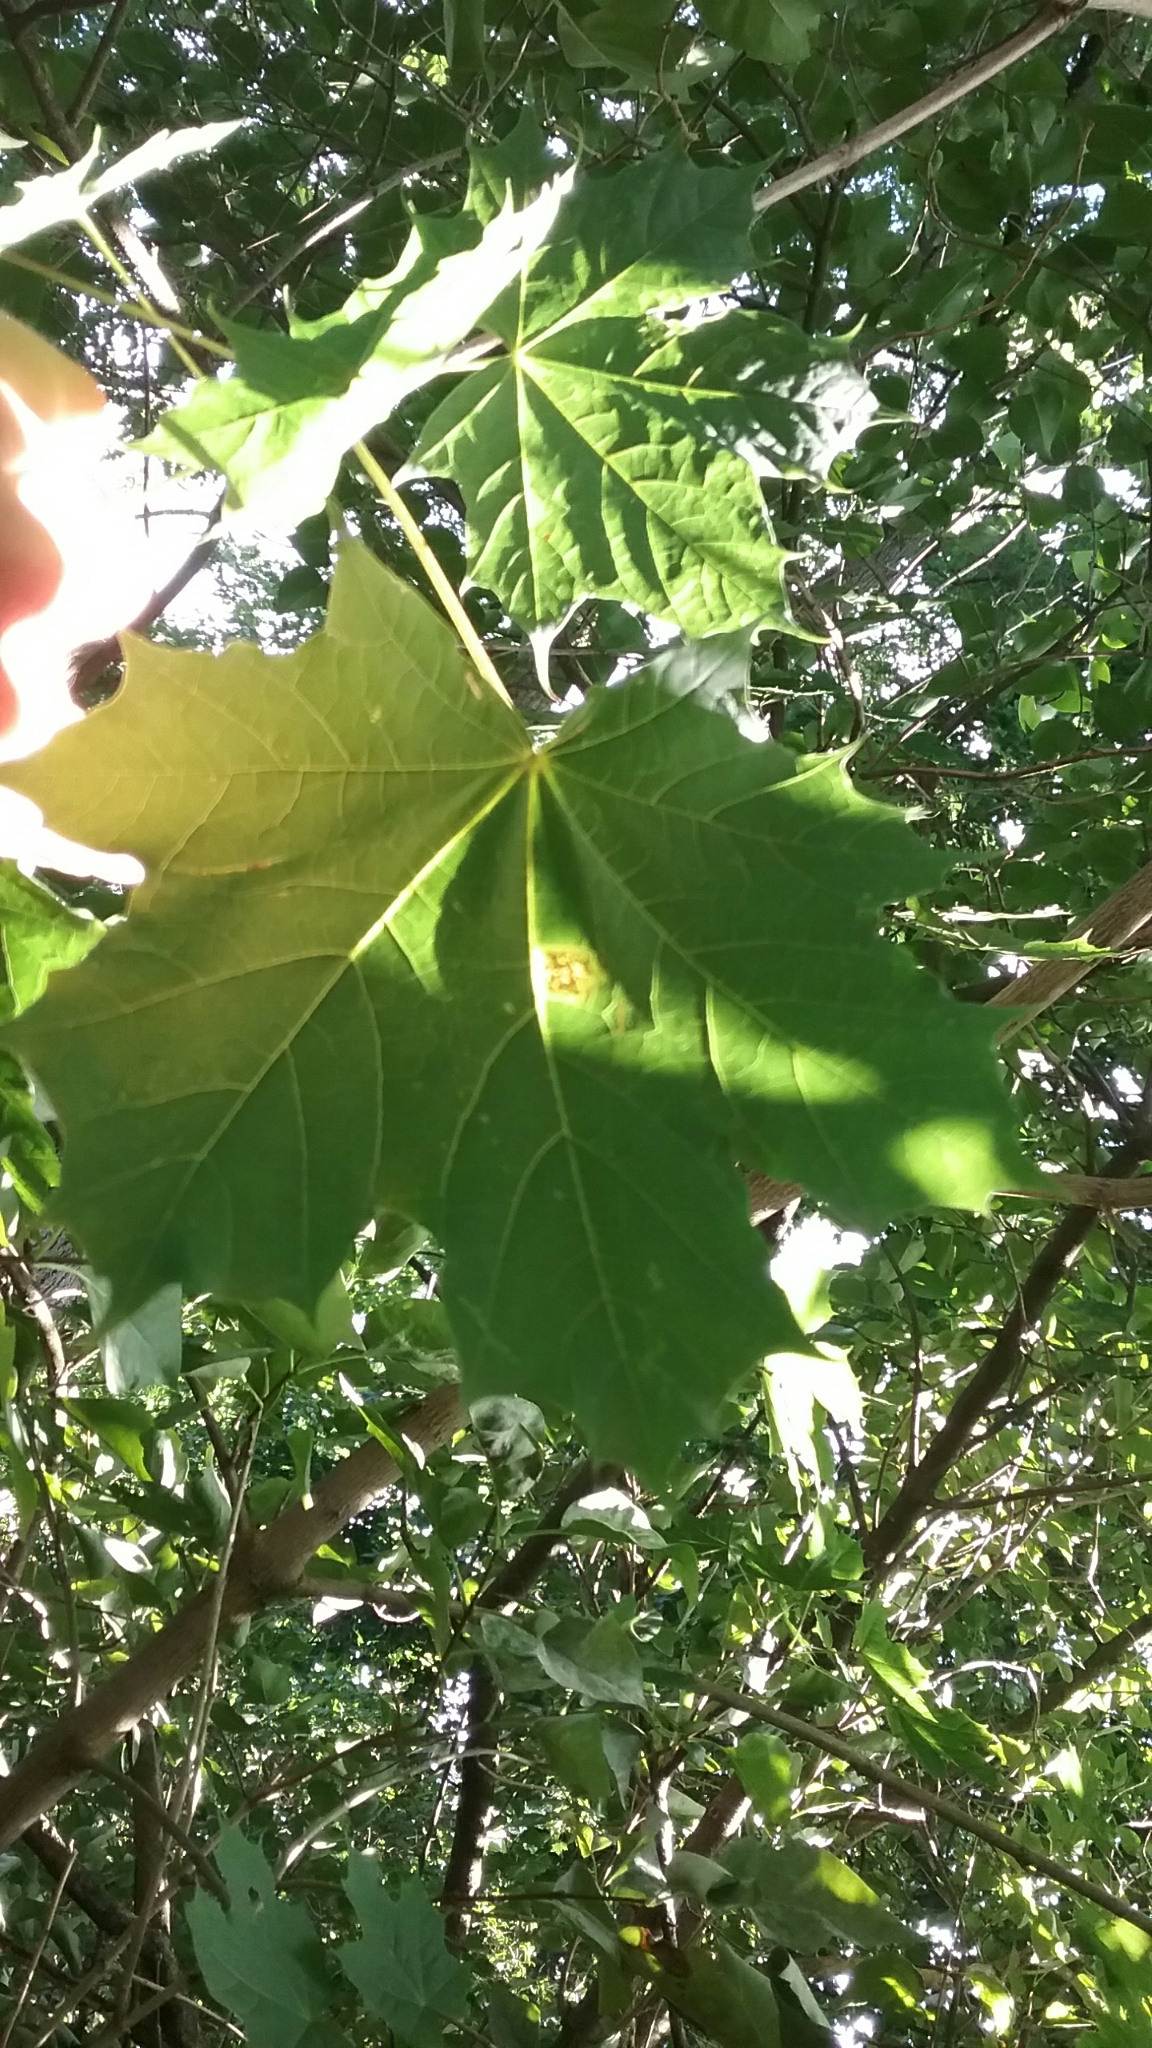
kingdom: Plantae
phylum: Tracheophyta
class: Magnoliopsida
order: Sapindales
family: Sapindaceae
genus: Acer
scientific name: Acer platanoides
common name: Norway maple
